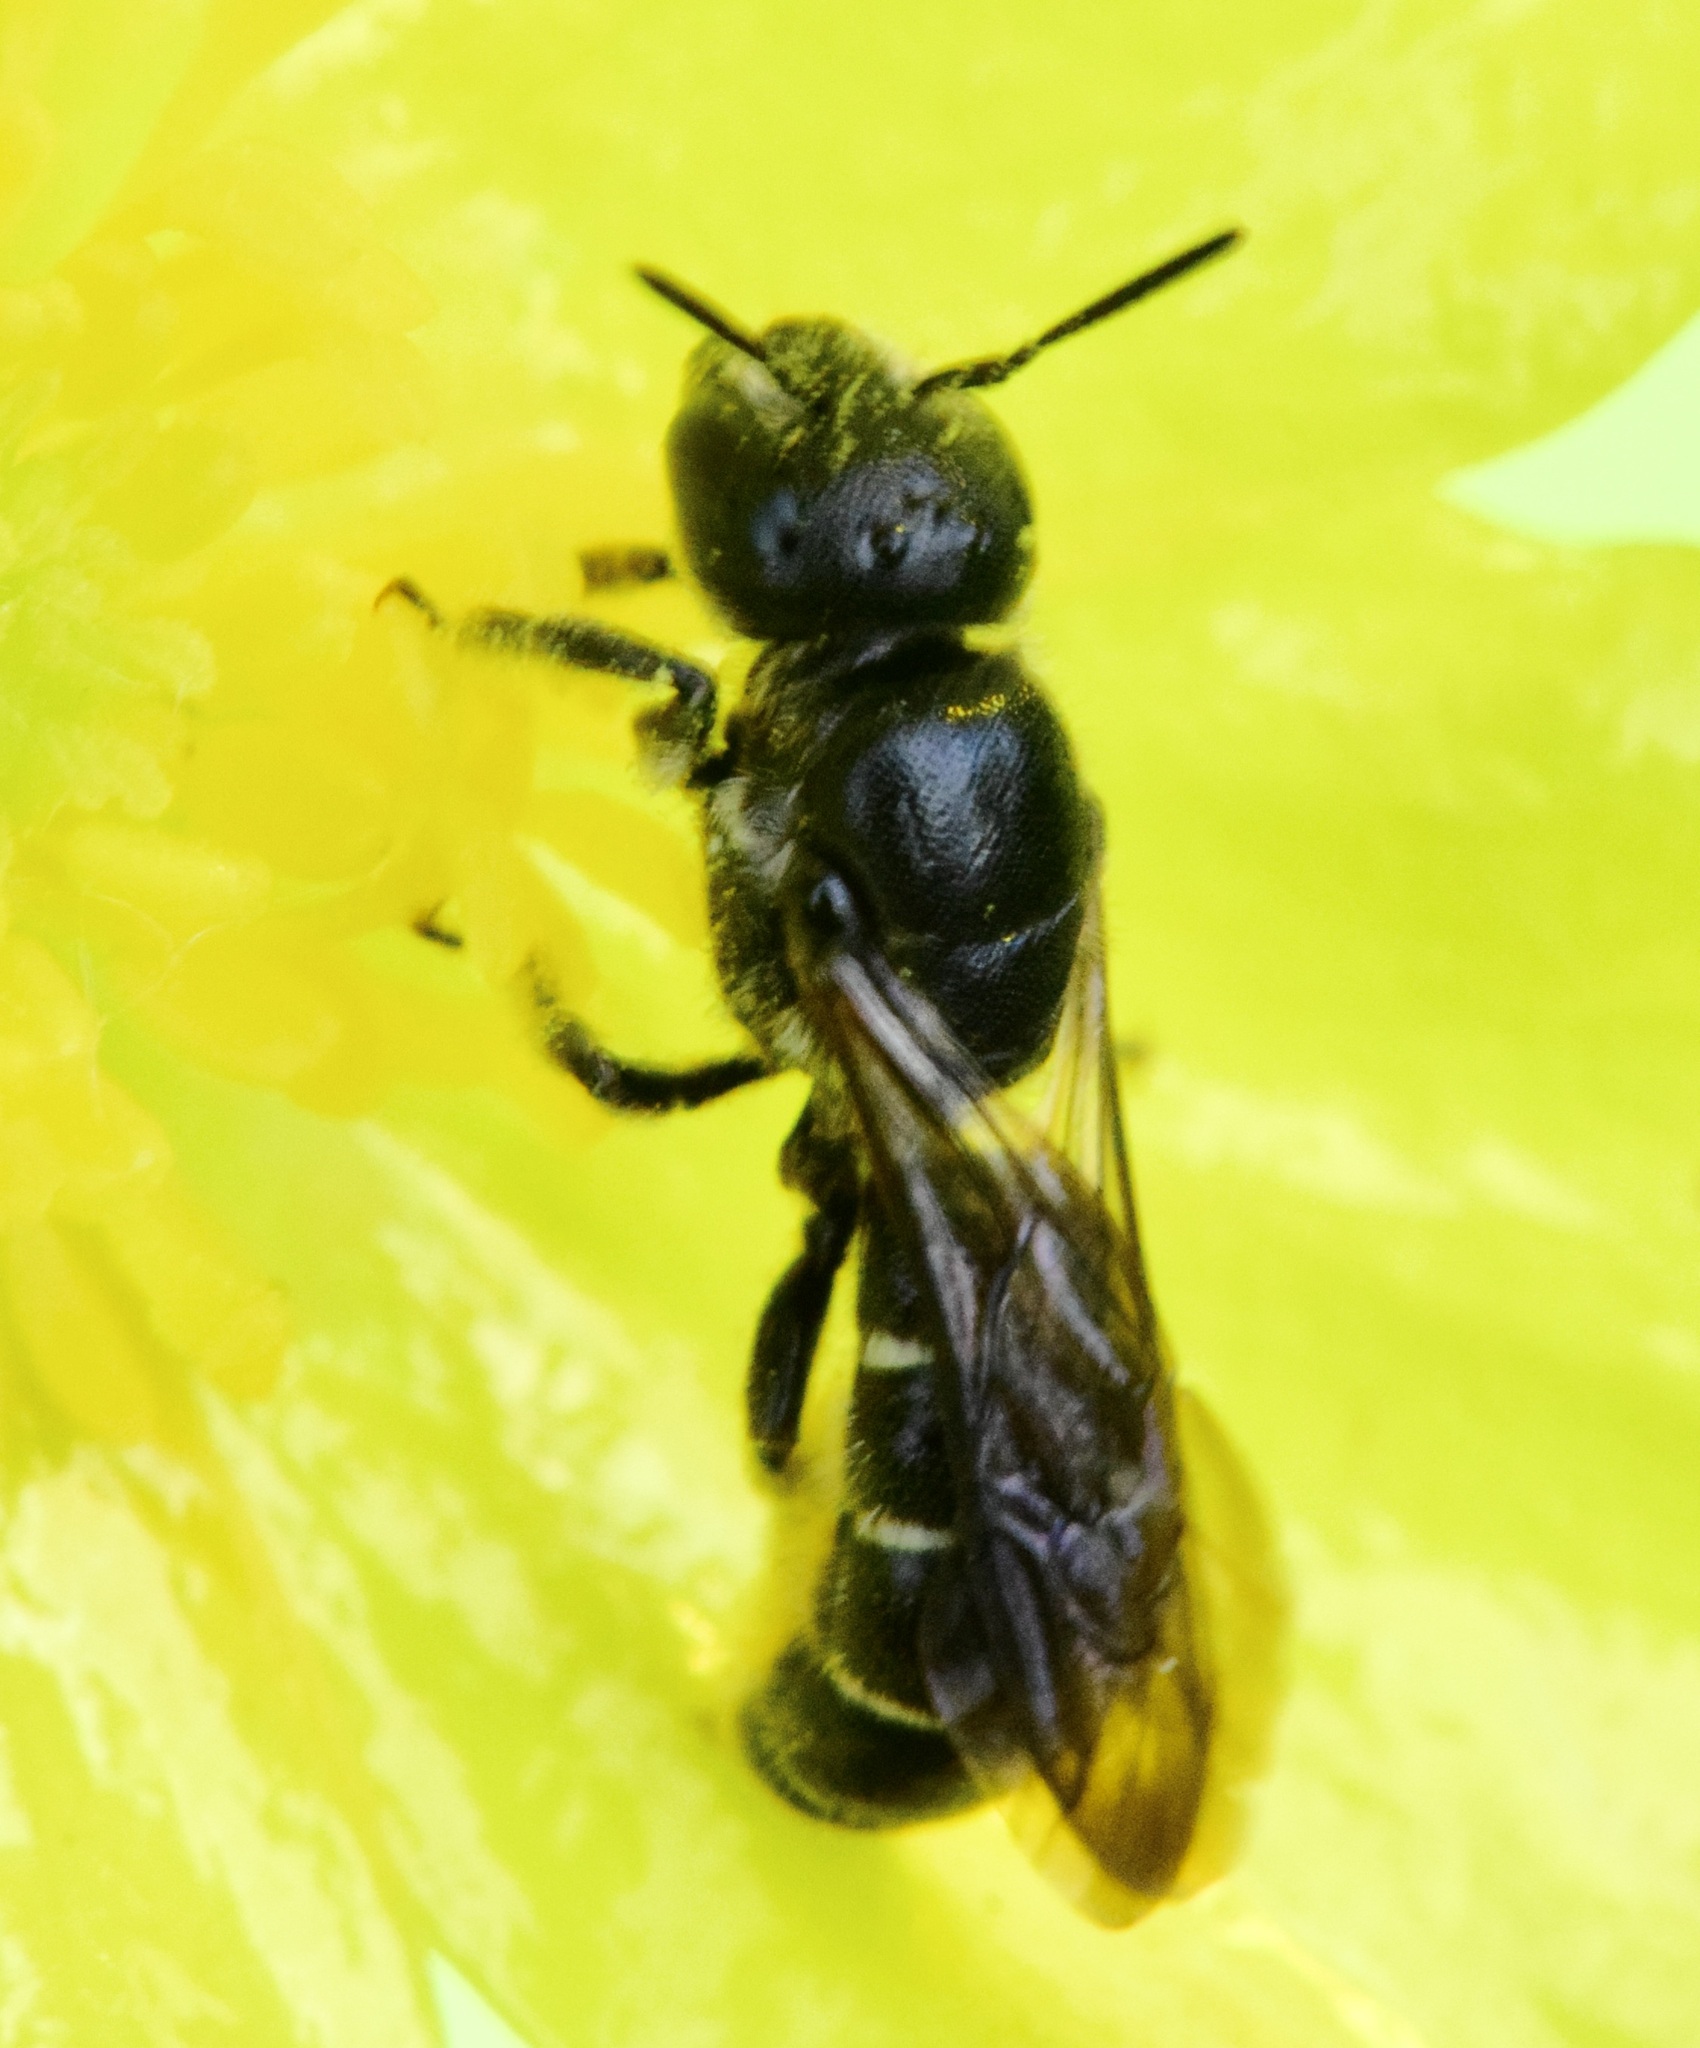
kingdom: Animalia
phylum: Arthropoda
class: Insecta
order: Hymenoptera
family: Megachilidae
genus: Chelostoma
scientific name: Chelostoma rapunculi
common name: Rampion scissor bee
